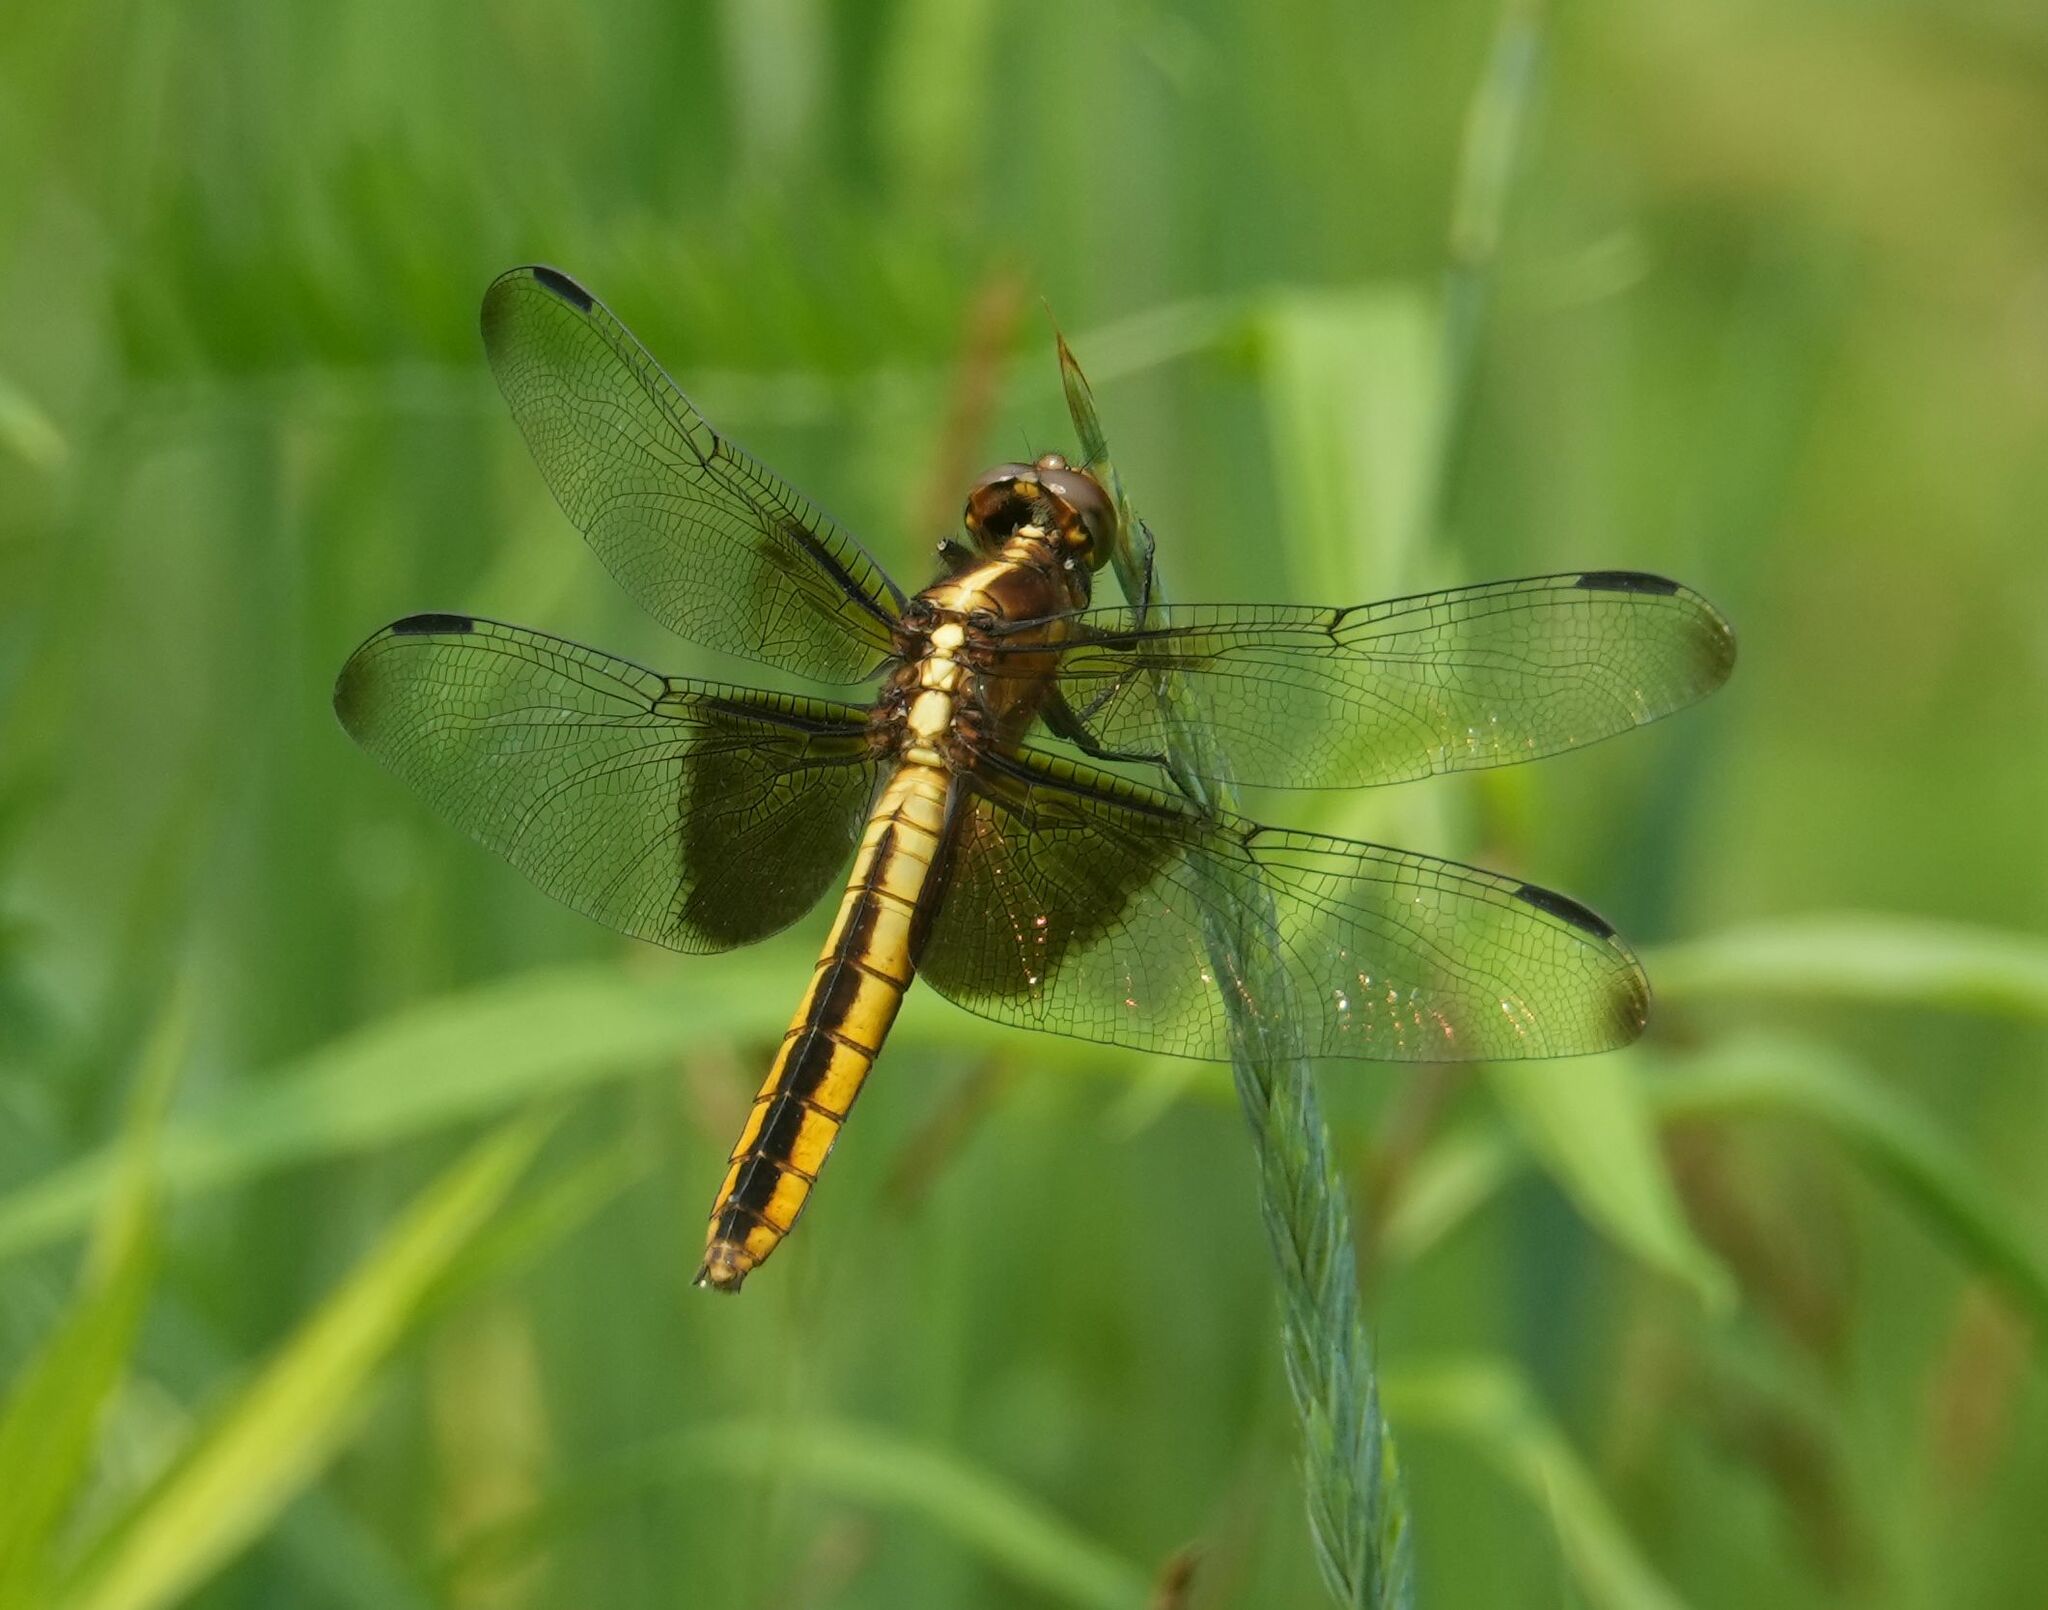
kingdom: Animalia
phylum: Arthropoda
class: Insecta
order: Odonata
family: Libellulidae
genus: Libellula
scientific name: Libellula luctuosa
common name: Widow skimmer
